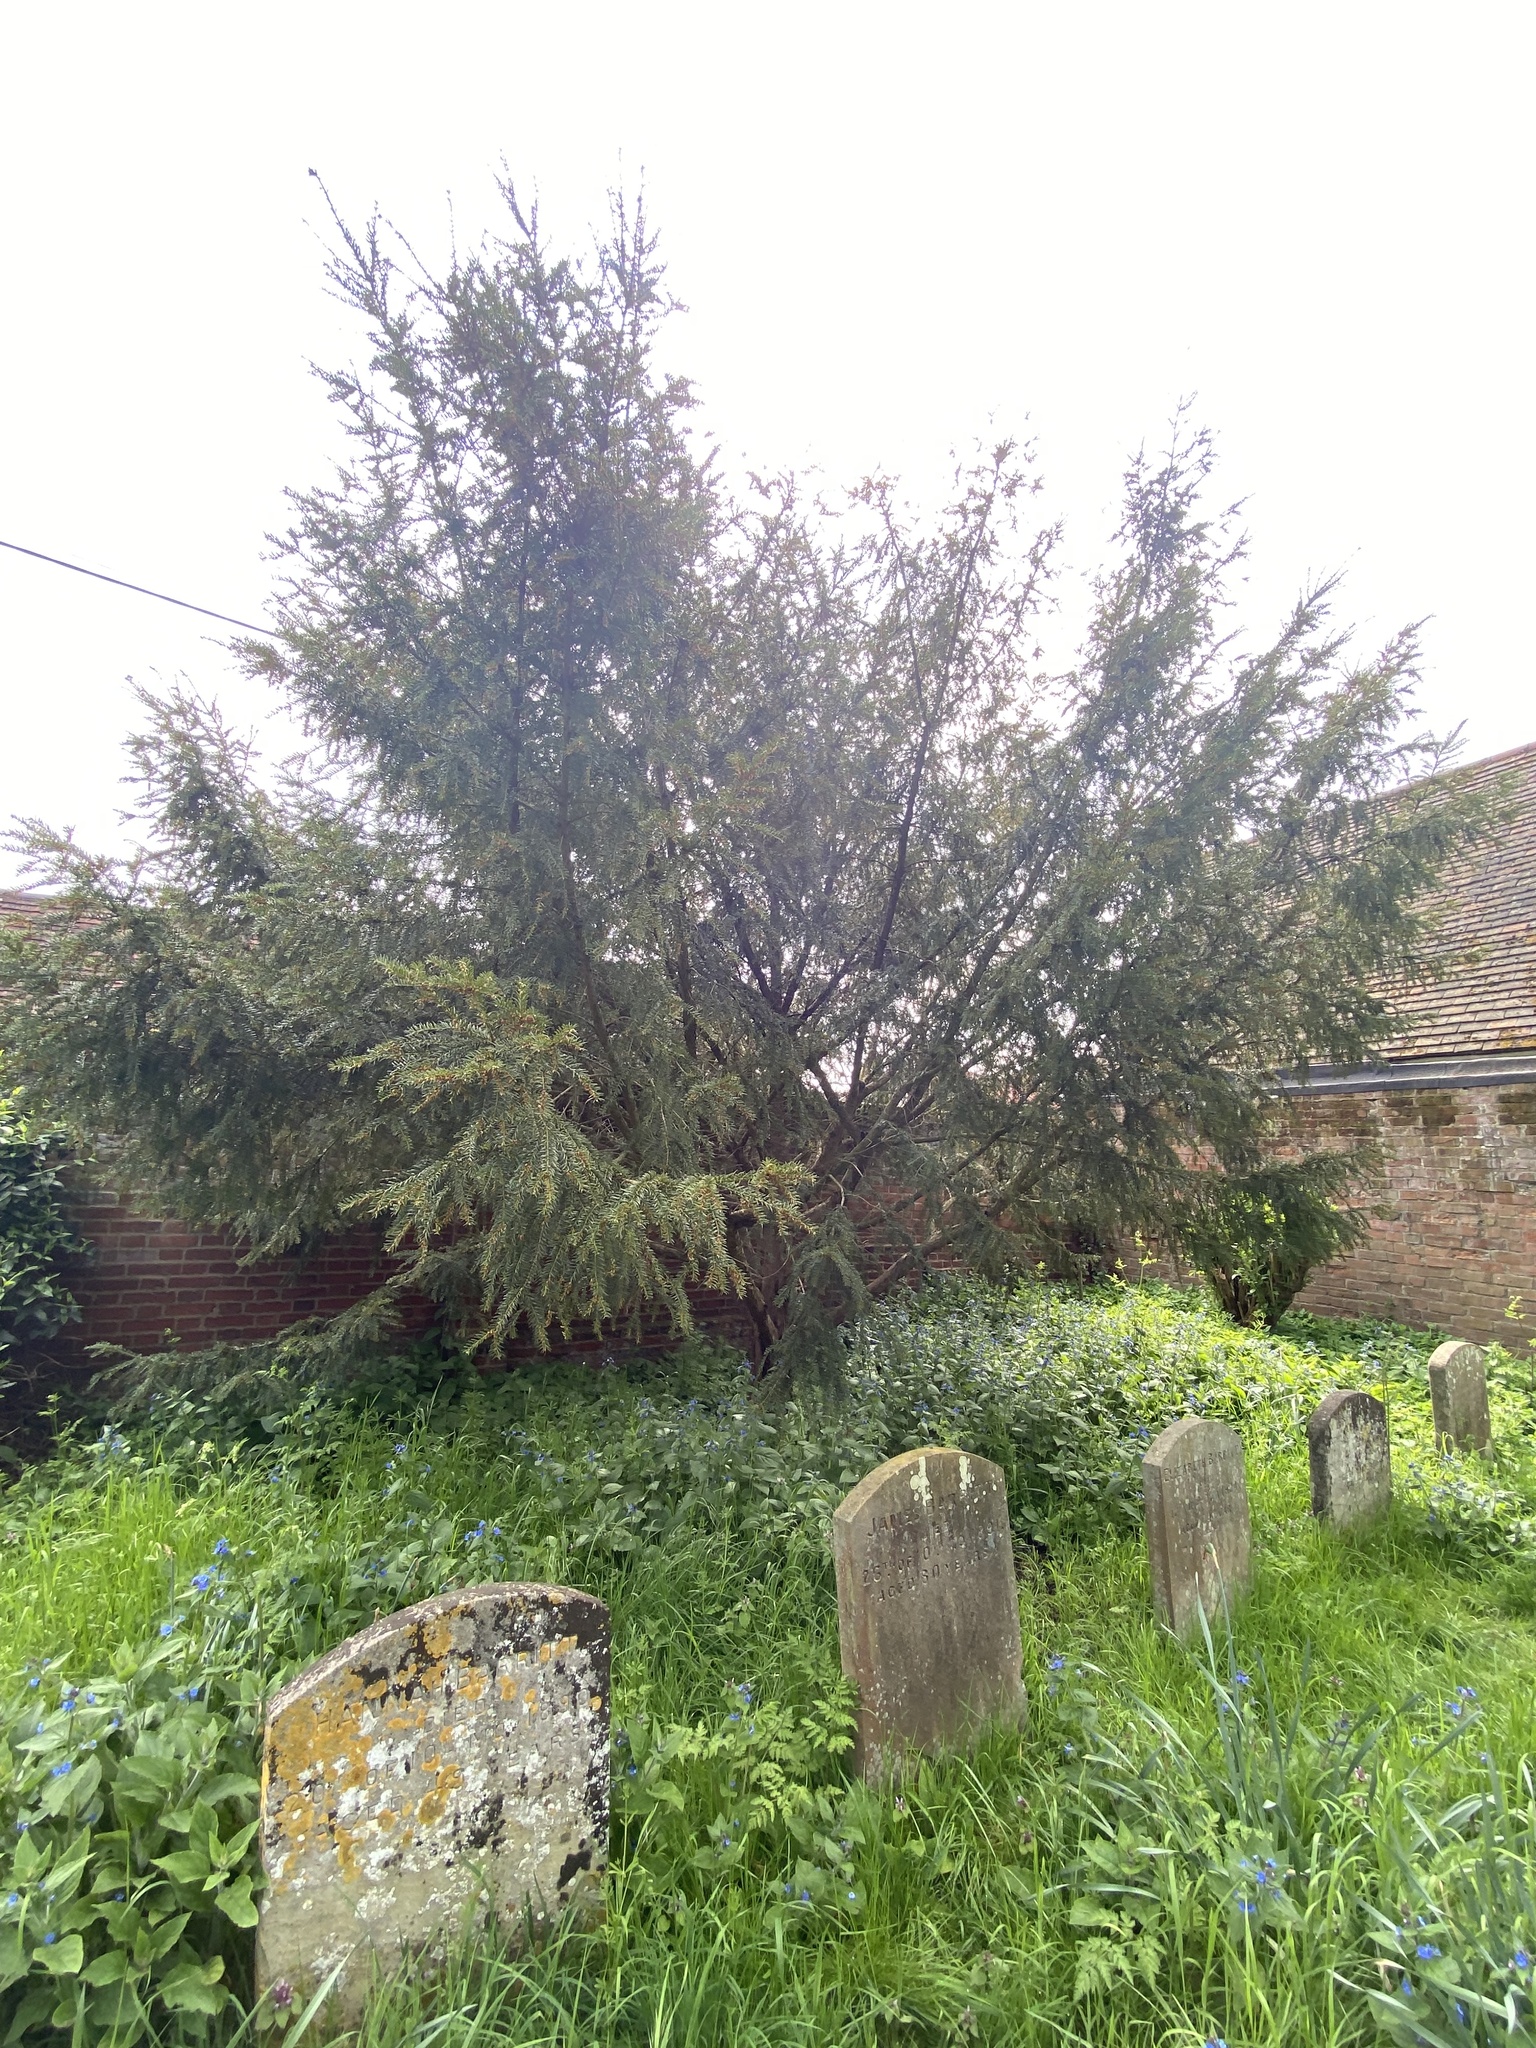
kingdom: Plantae
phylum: Tracheophyta
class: Pinopsida
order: Pinales
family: Taxaceae
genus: Taxus
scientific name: Taxus baccata
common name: Yew
